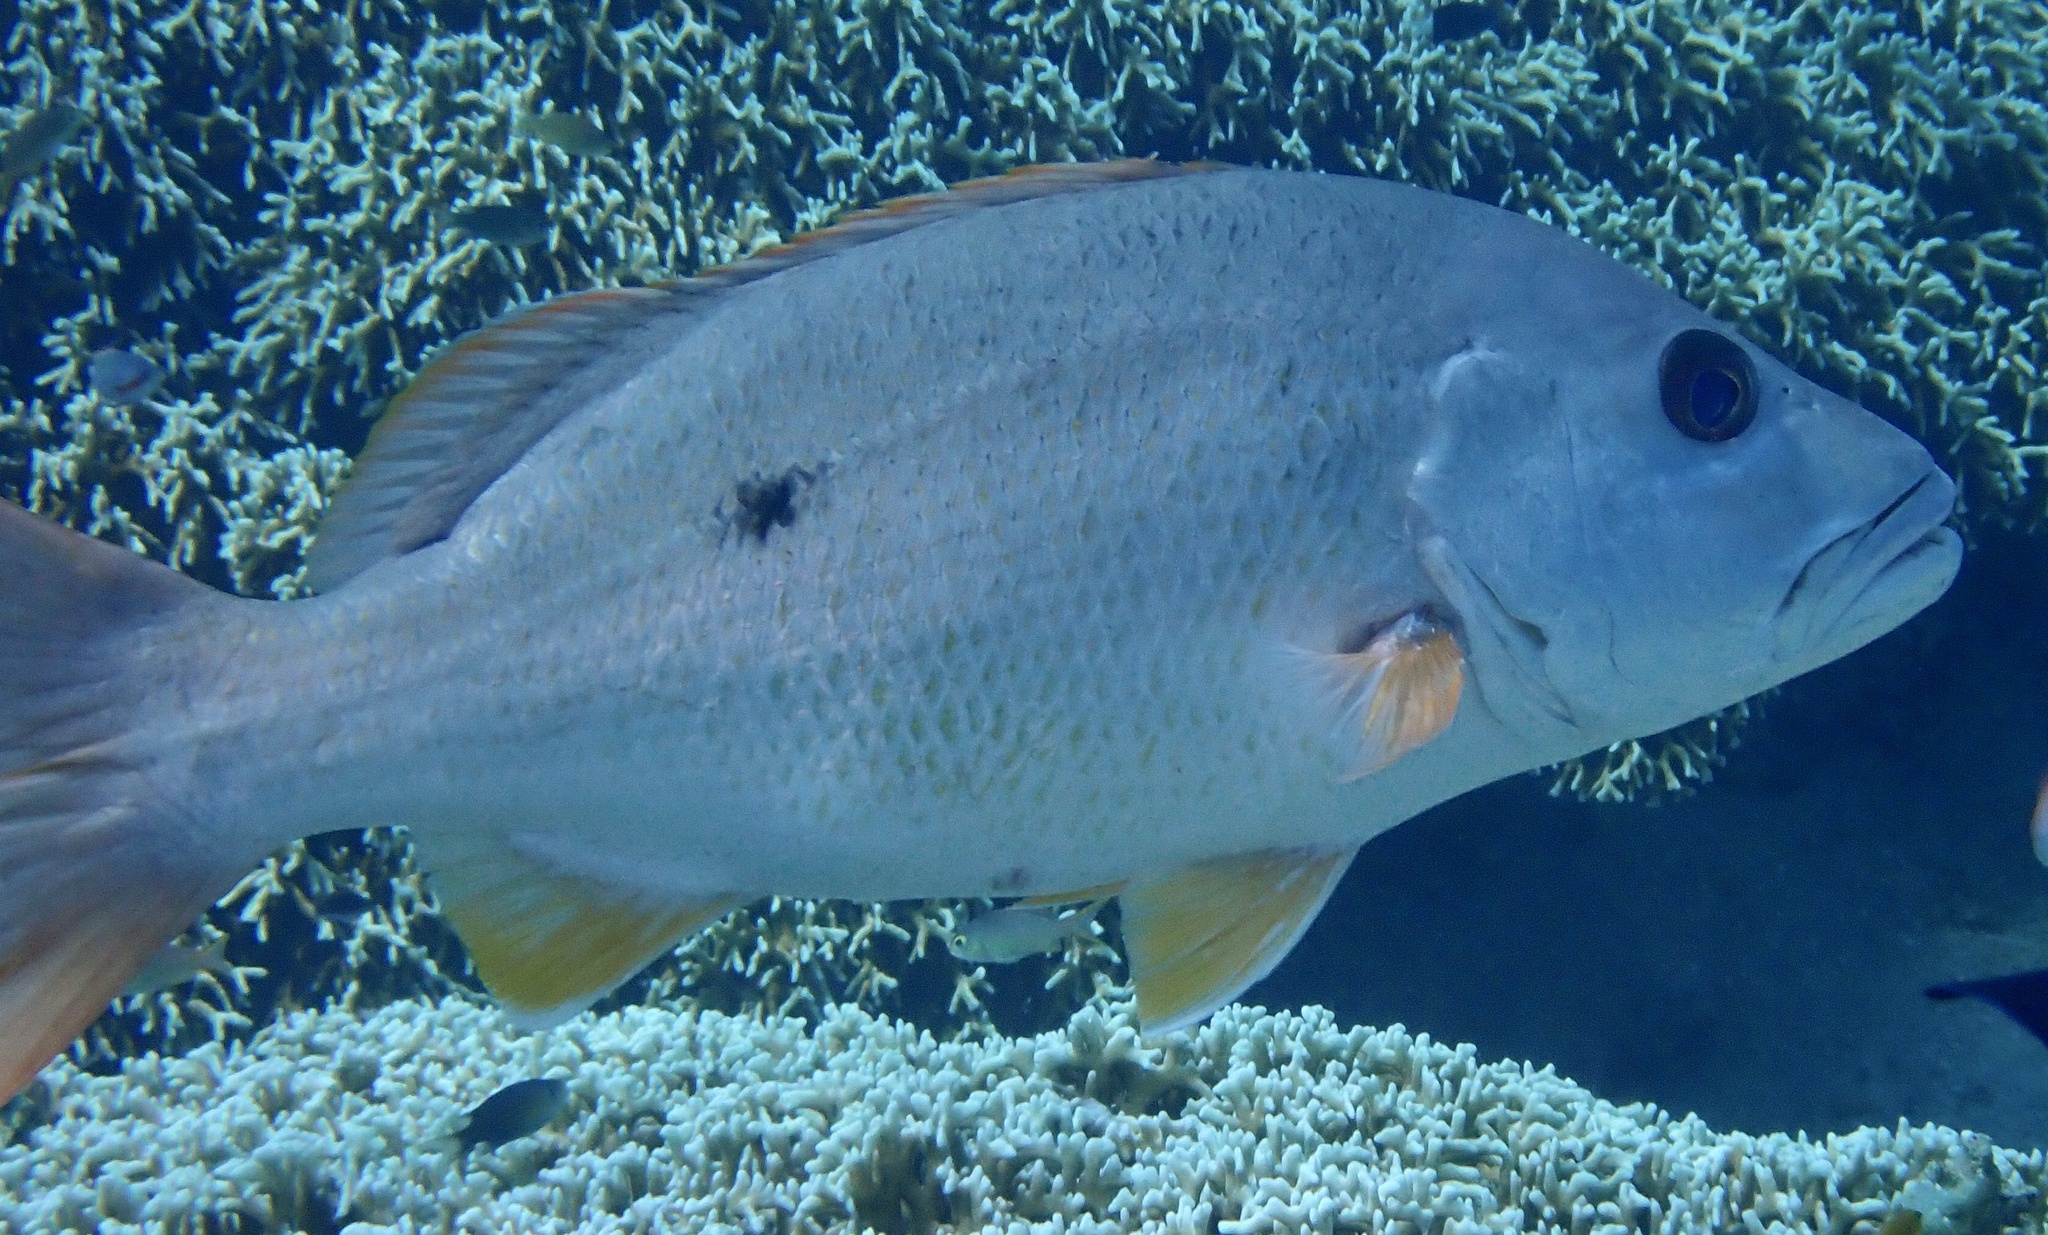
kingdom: Animalia
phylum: Chordata
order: Perciformes
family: Lutjanidae
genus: Lutjanus
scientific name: Lutjanus monostigma
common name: Onespot snapper
